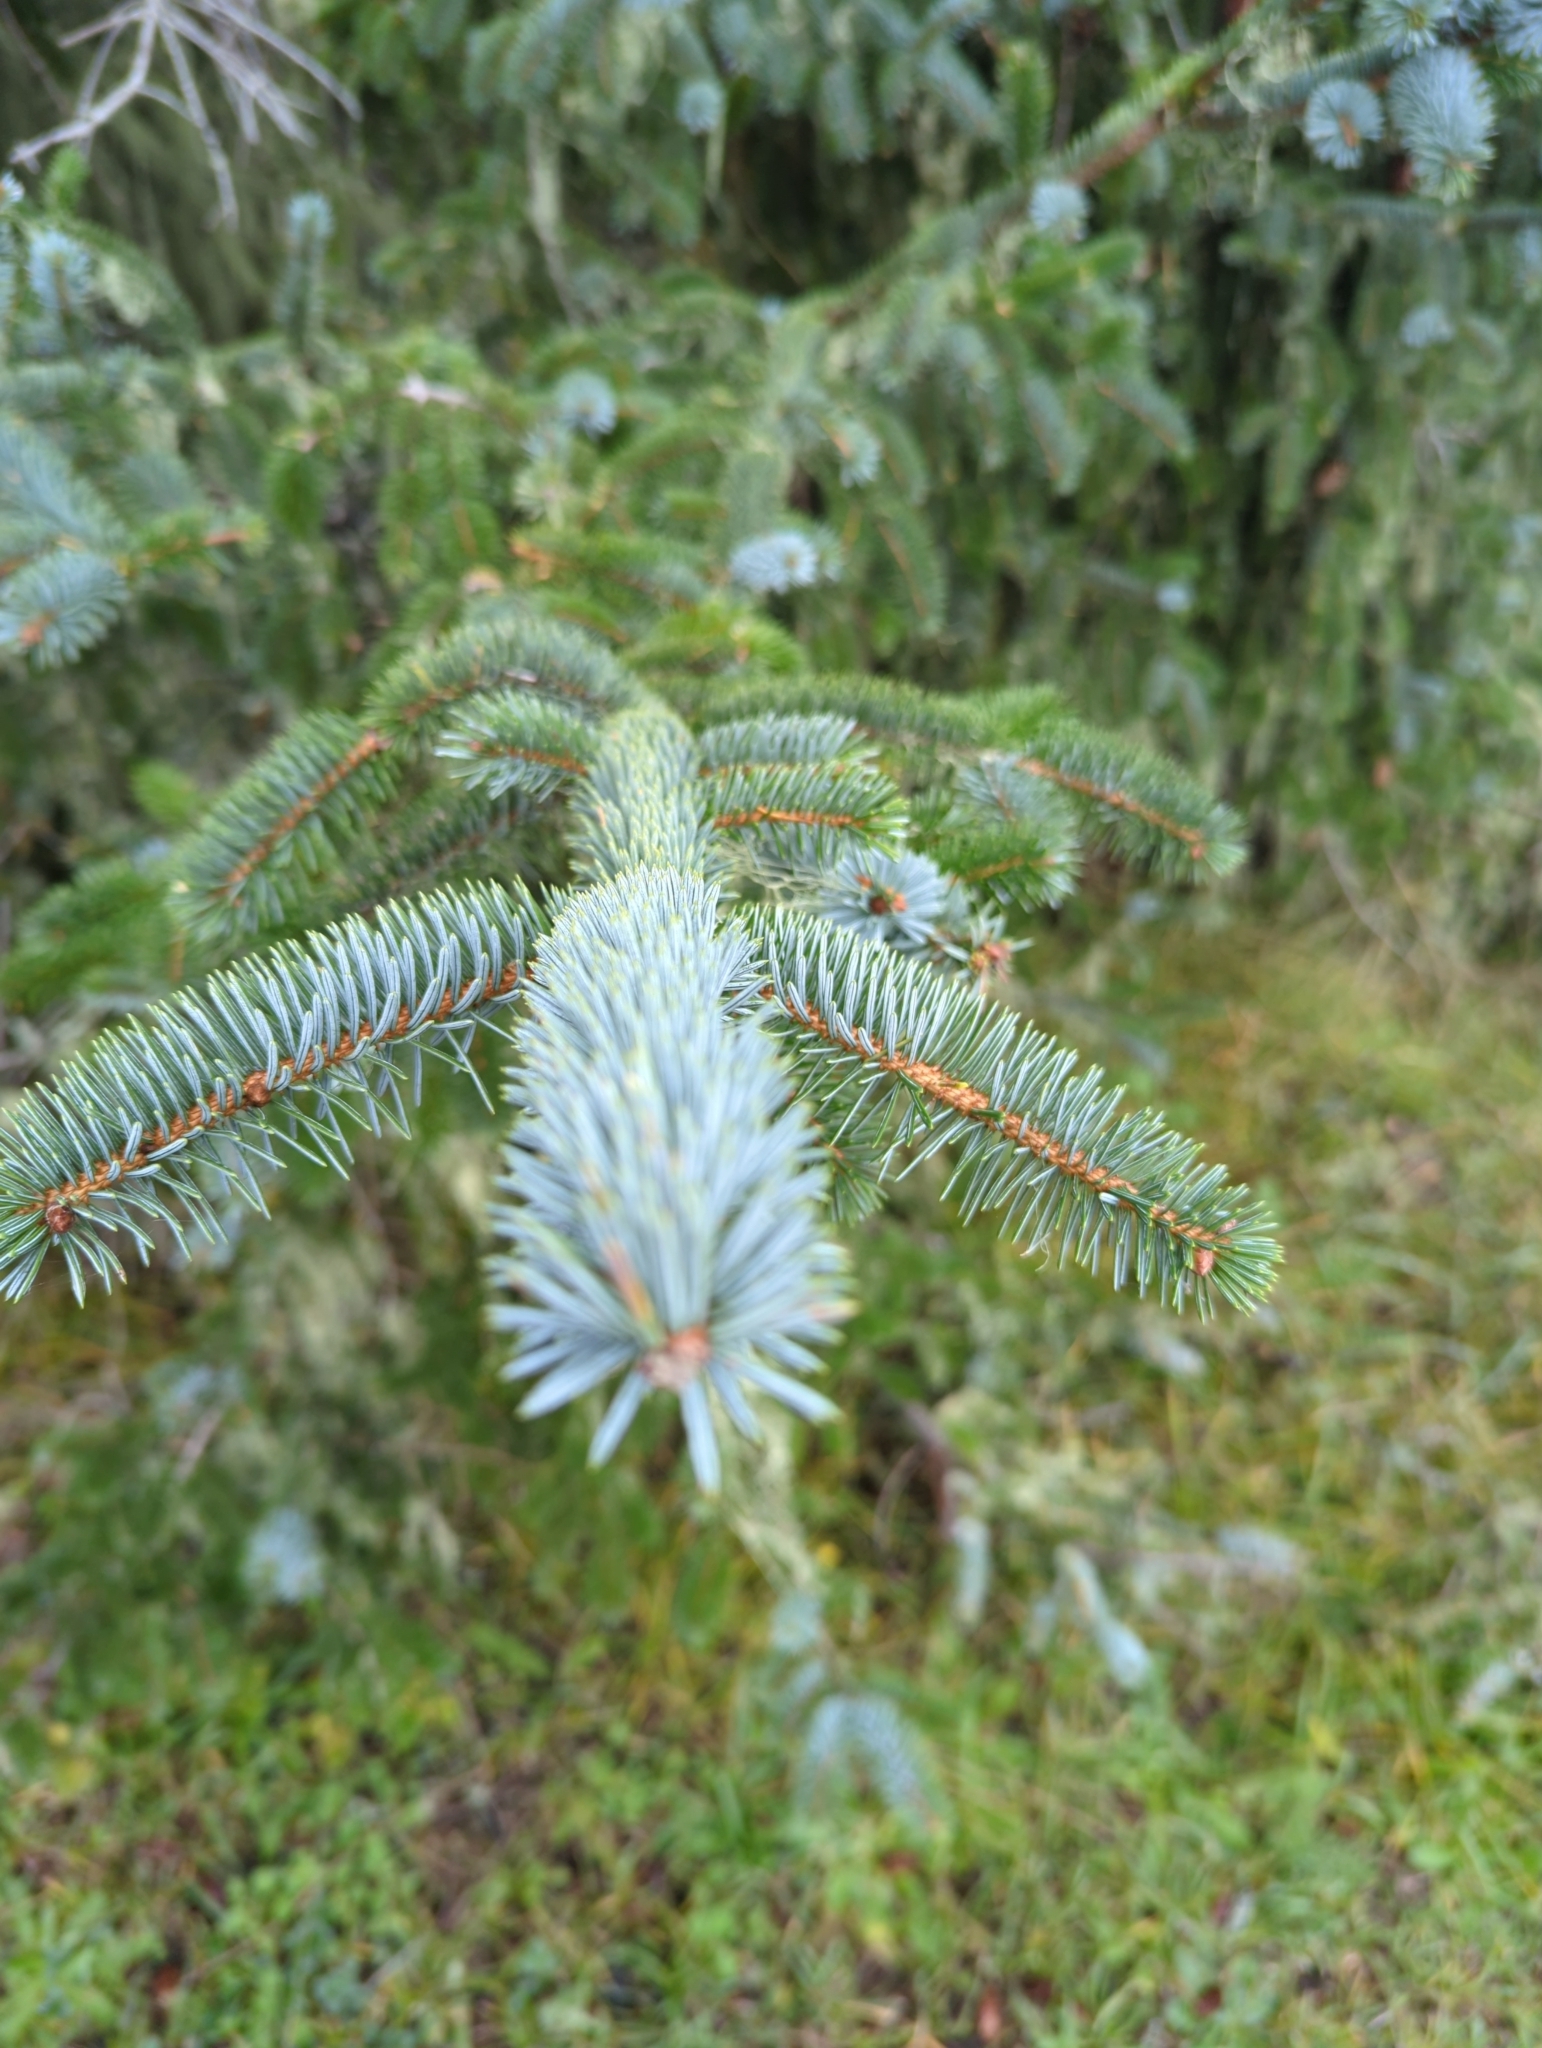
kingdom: Plantae
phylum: Tracheophyta
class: Pinopsida
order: Pinales
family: Pinaceae
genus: Picea
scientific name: Picea sitchensis
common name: Sitka spruce
